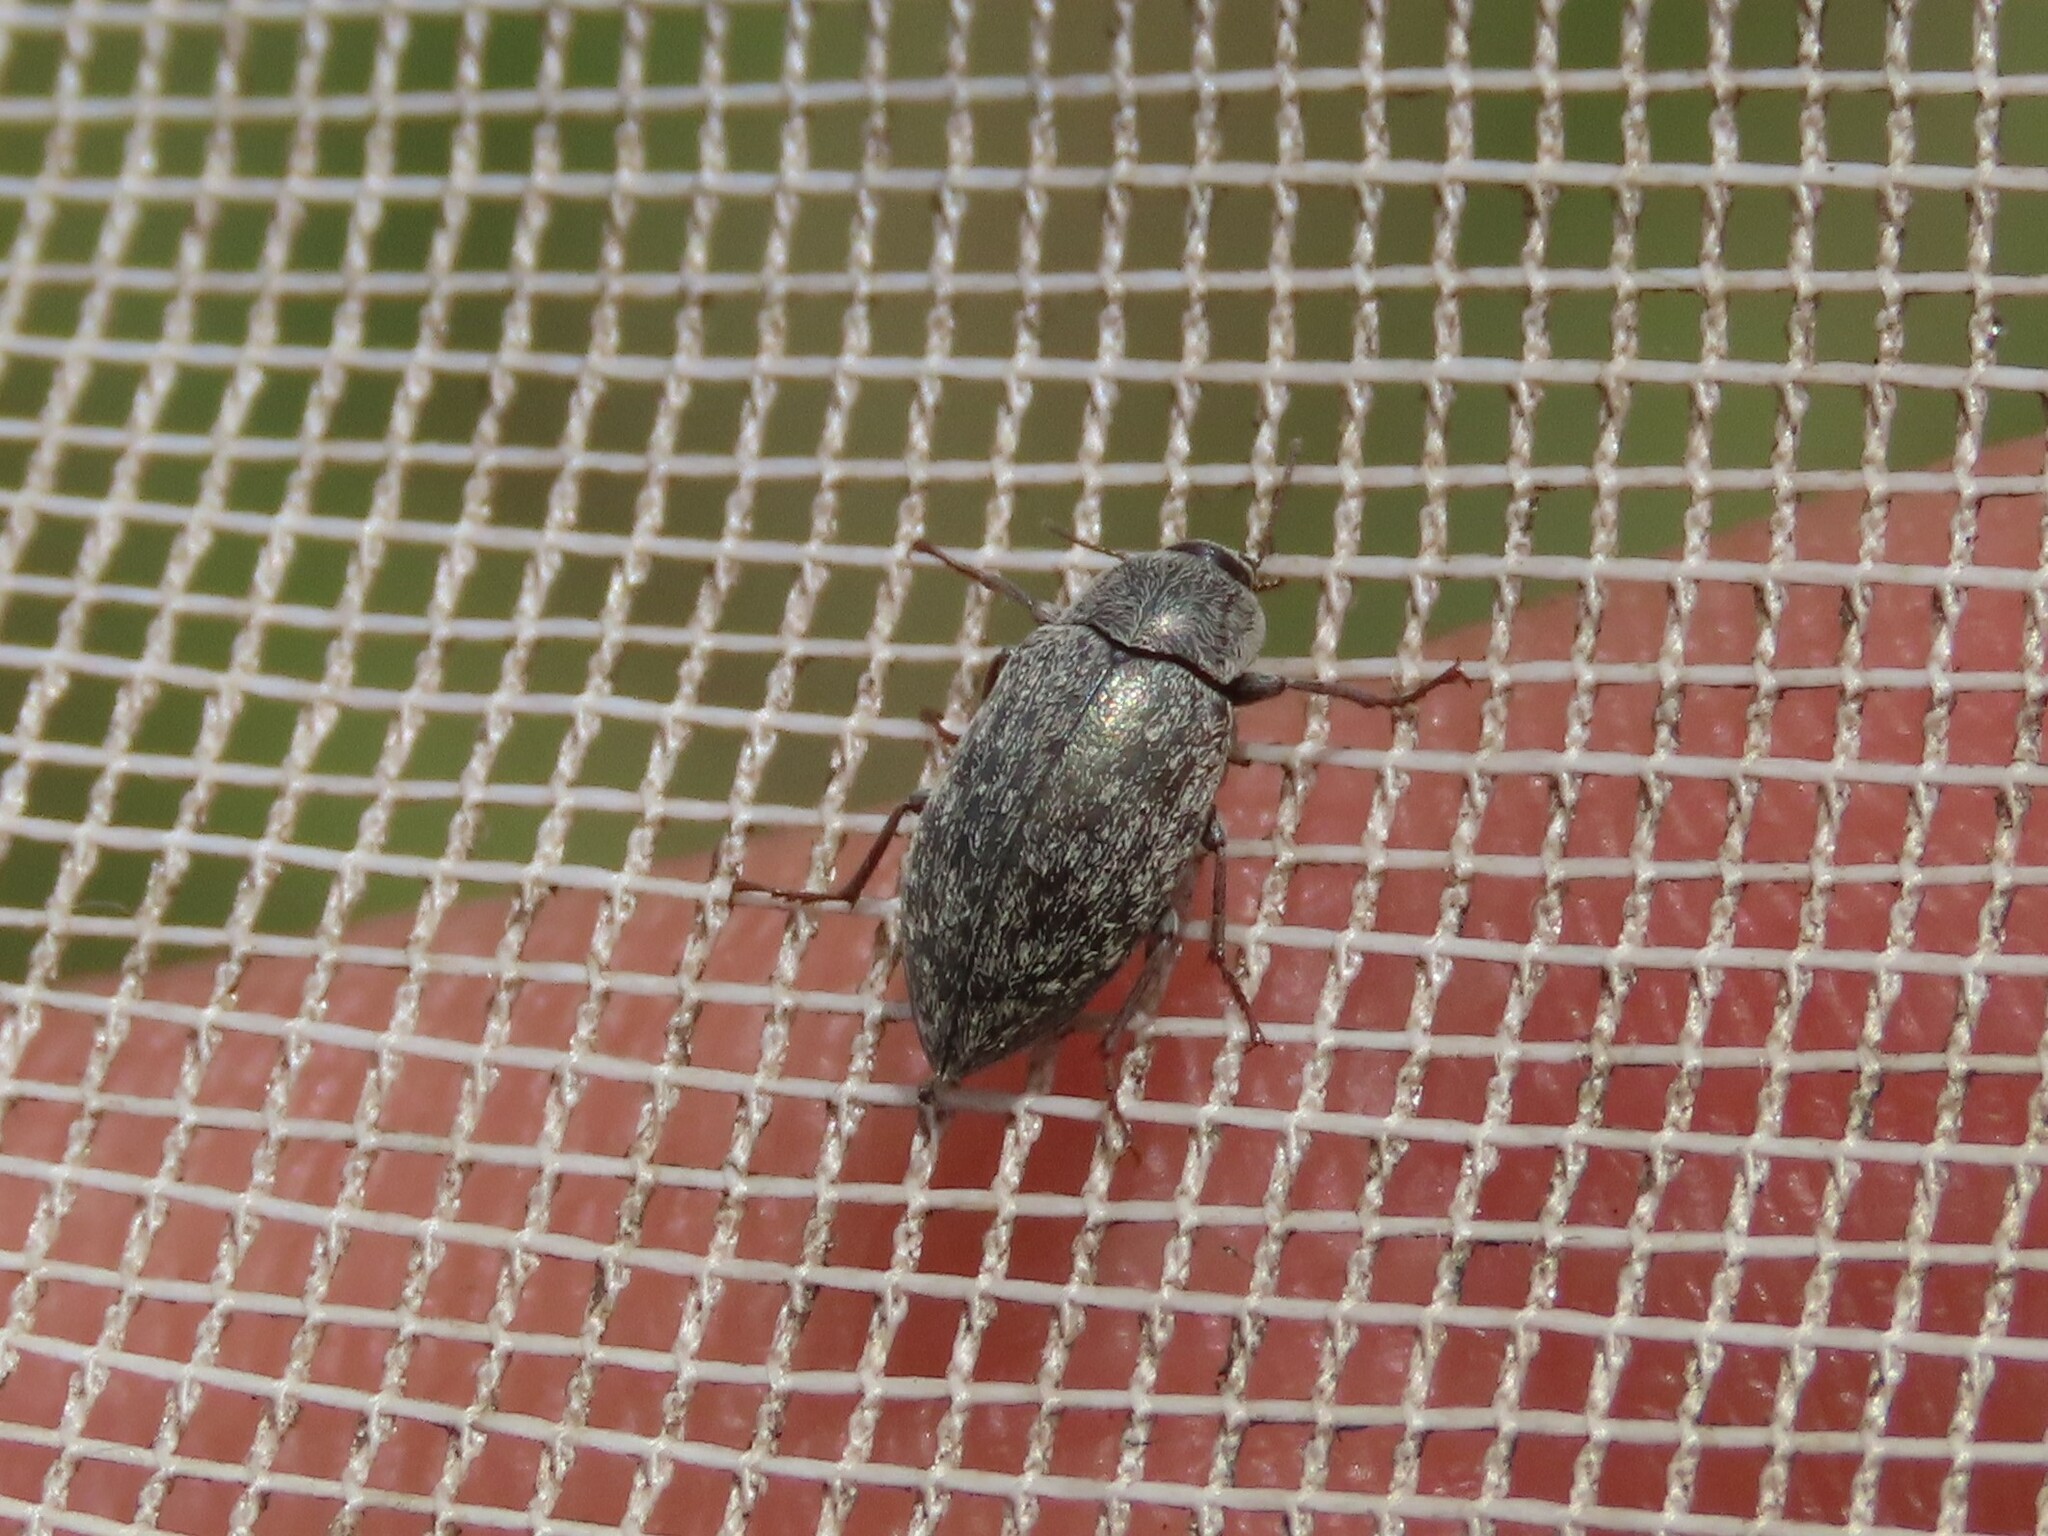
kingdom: Animalia
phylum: Arthropoda
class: Insecta
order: Coleoptera
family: Tenebrionidae
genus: Epitragodes
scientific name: Epitragodes tomentosus
